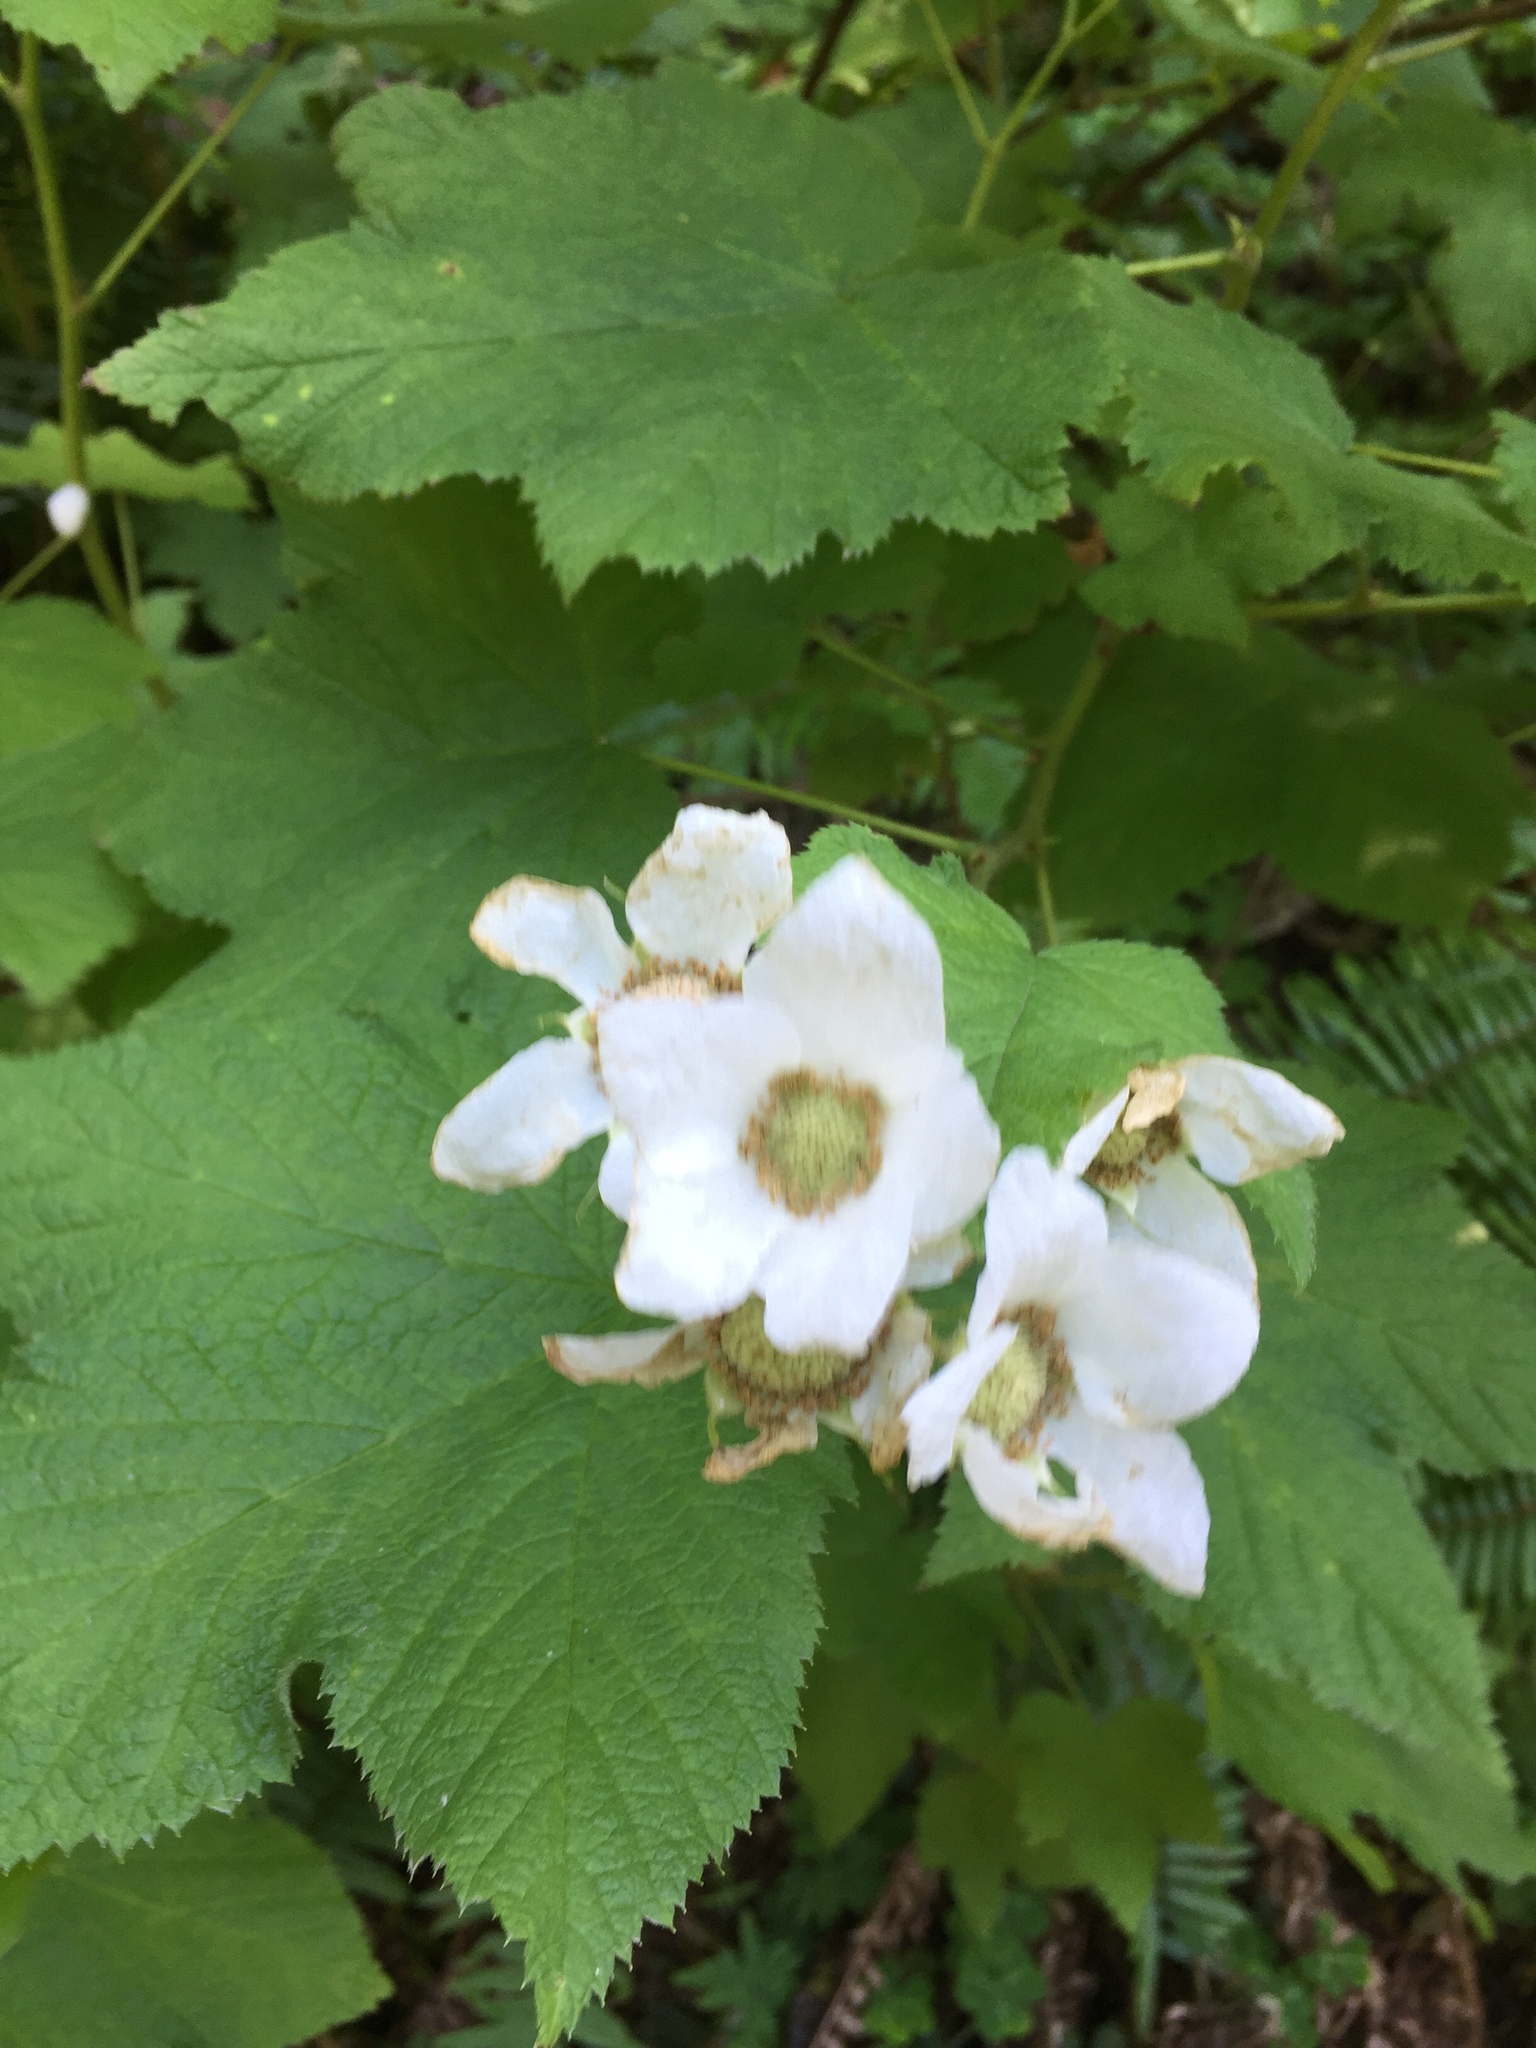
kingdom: Plantae
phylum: Tracheophyta
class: Magnoliopsida
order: Rosales
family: Rosaceae
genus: Rubus
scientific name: Rubus parviflorus
